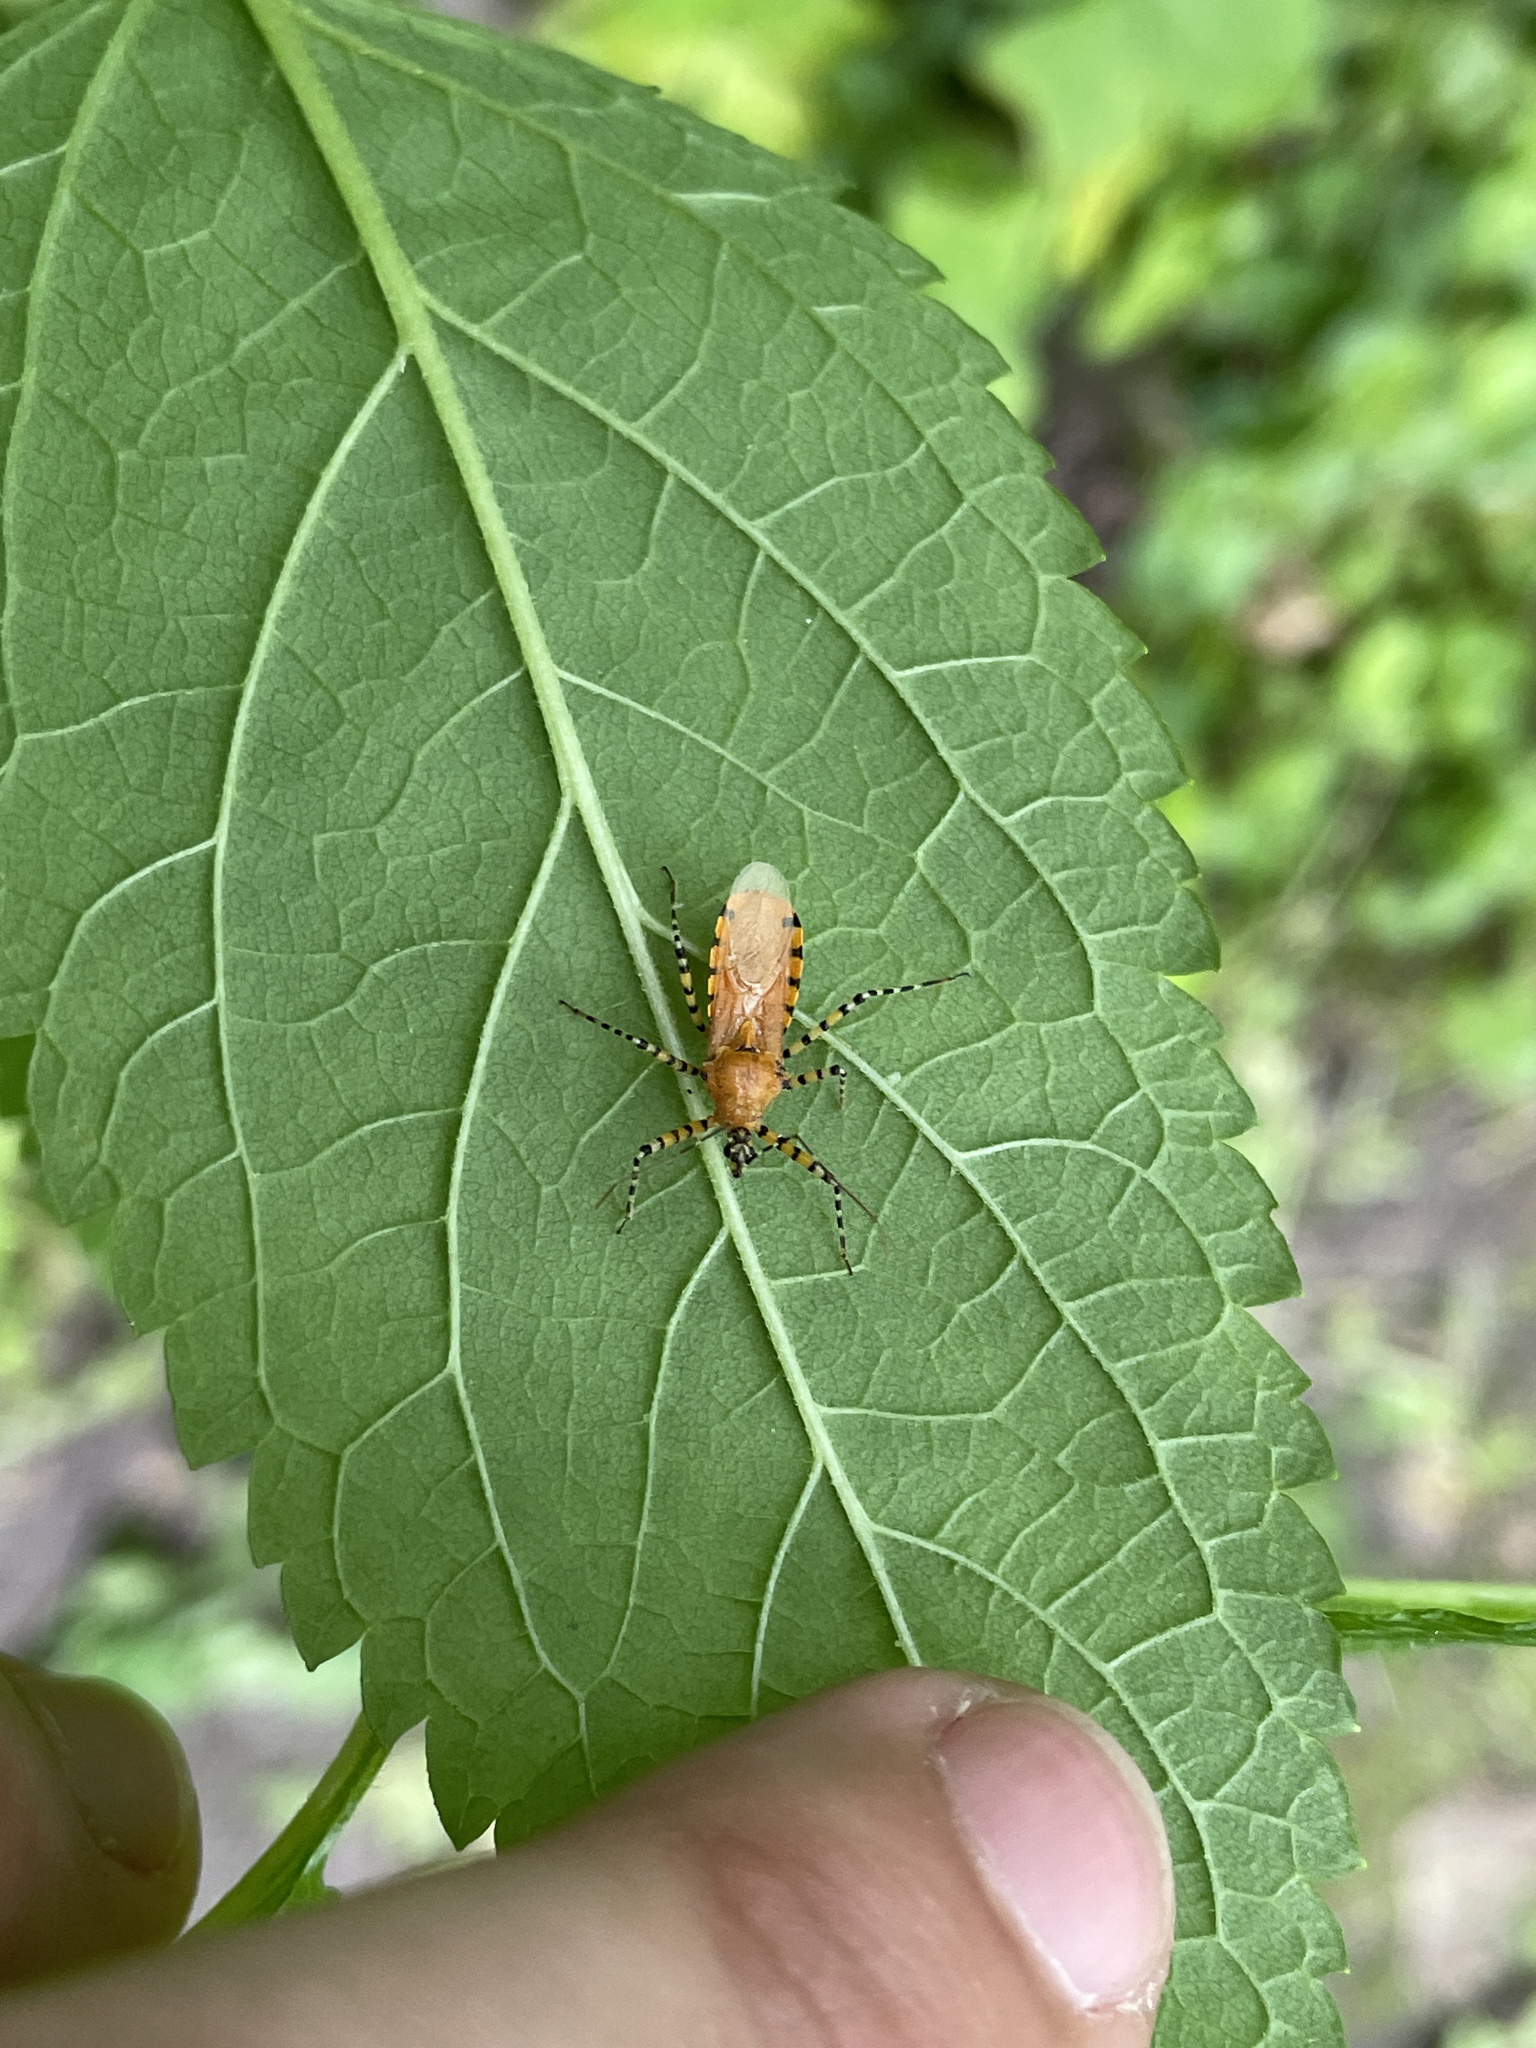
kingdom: Animalia
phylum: Arthropoda
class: Insecta
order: Hemiptera
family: Reduviidae
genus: Pselliopus
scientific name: Pselliopus barberi
